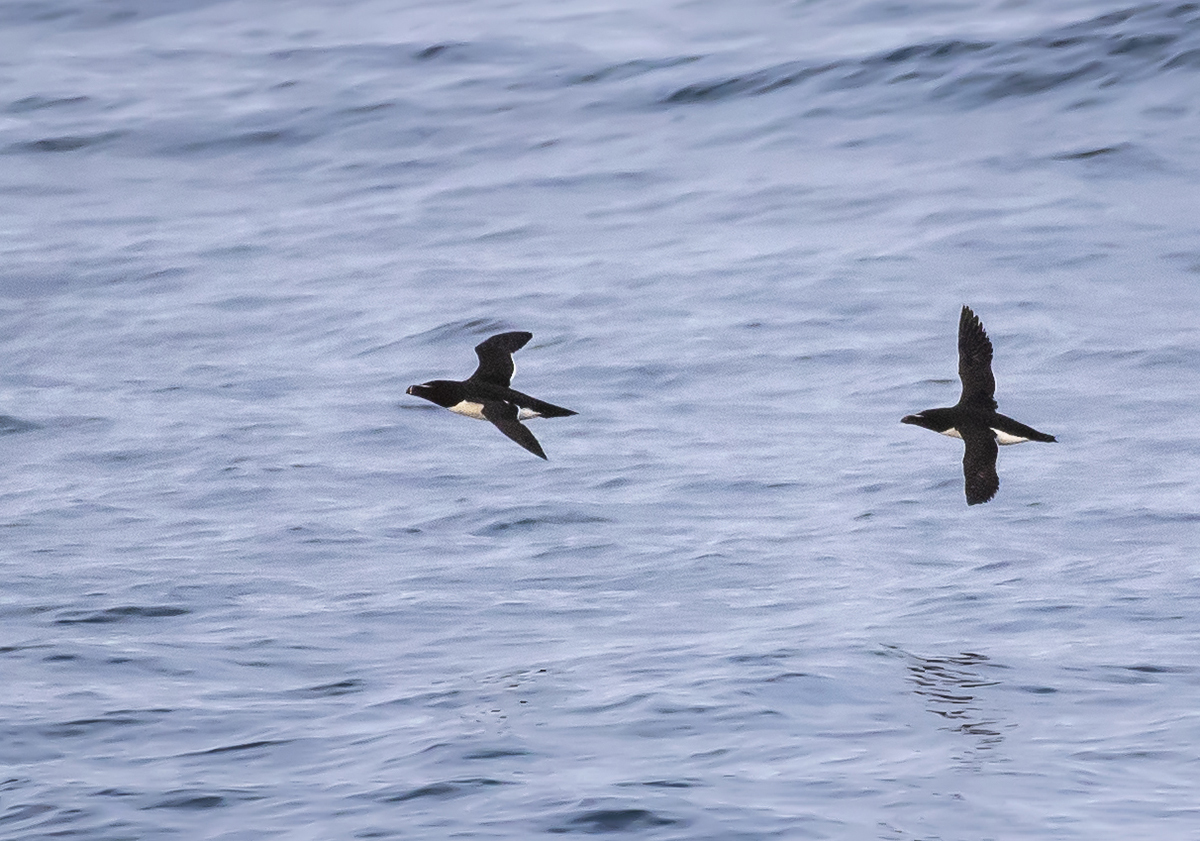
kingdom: Animalia
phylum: Chordata
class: Aves
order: Charadriiformes
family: Alcidae
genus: Alca
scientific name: Alca torda
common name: Razorbill
